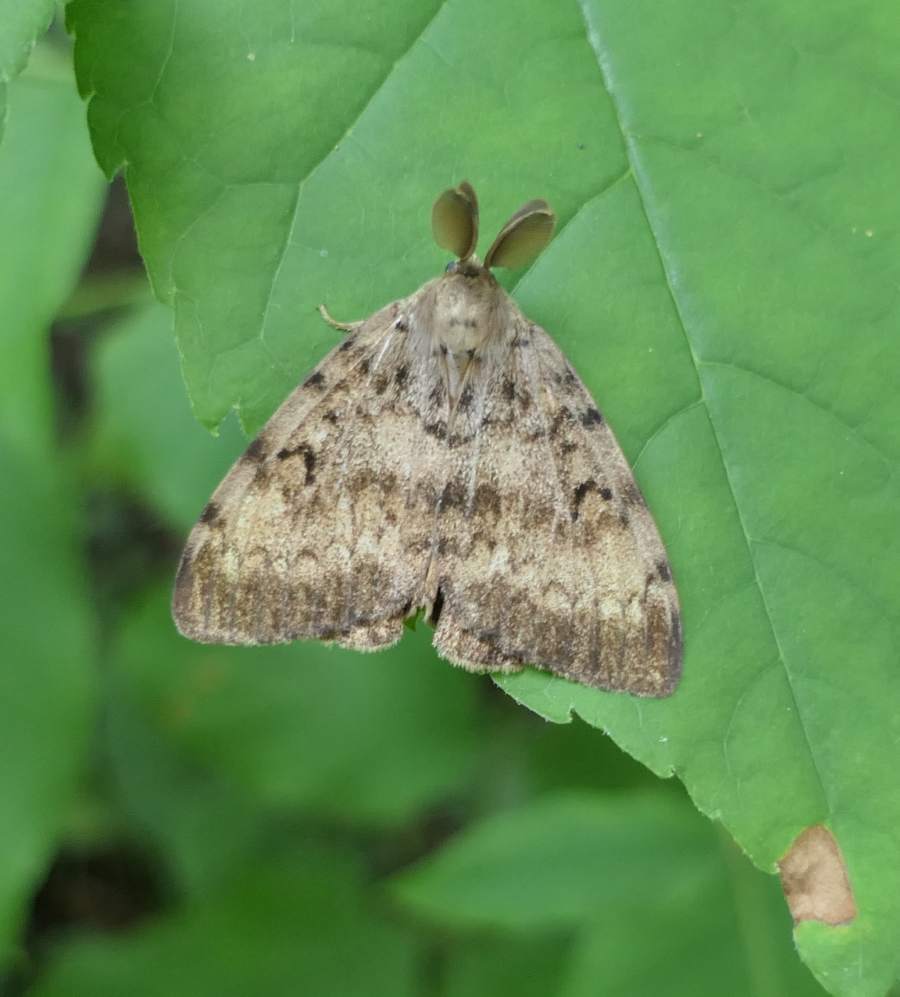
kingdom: Animalia
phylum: Arthropoda
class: Insecta
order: Lepidoptera
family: Erebidae
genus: Lymantria
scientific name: Lymantria dispar
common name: Gypsy moth
